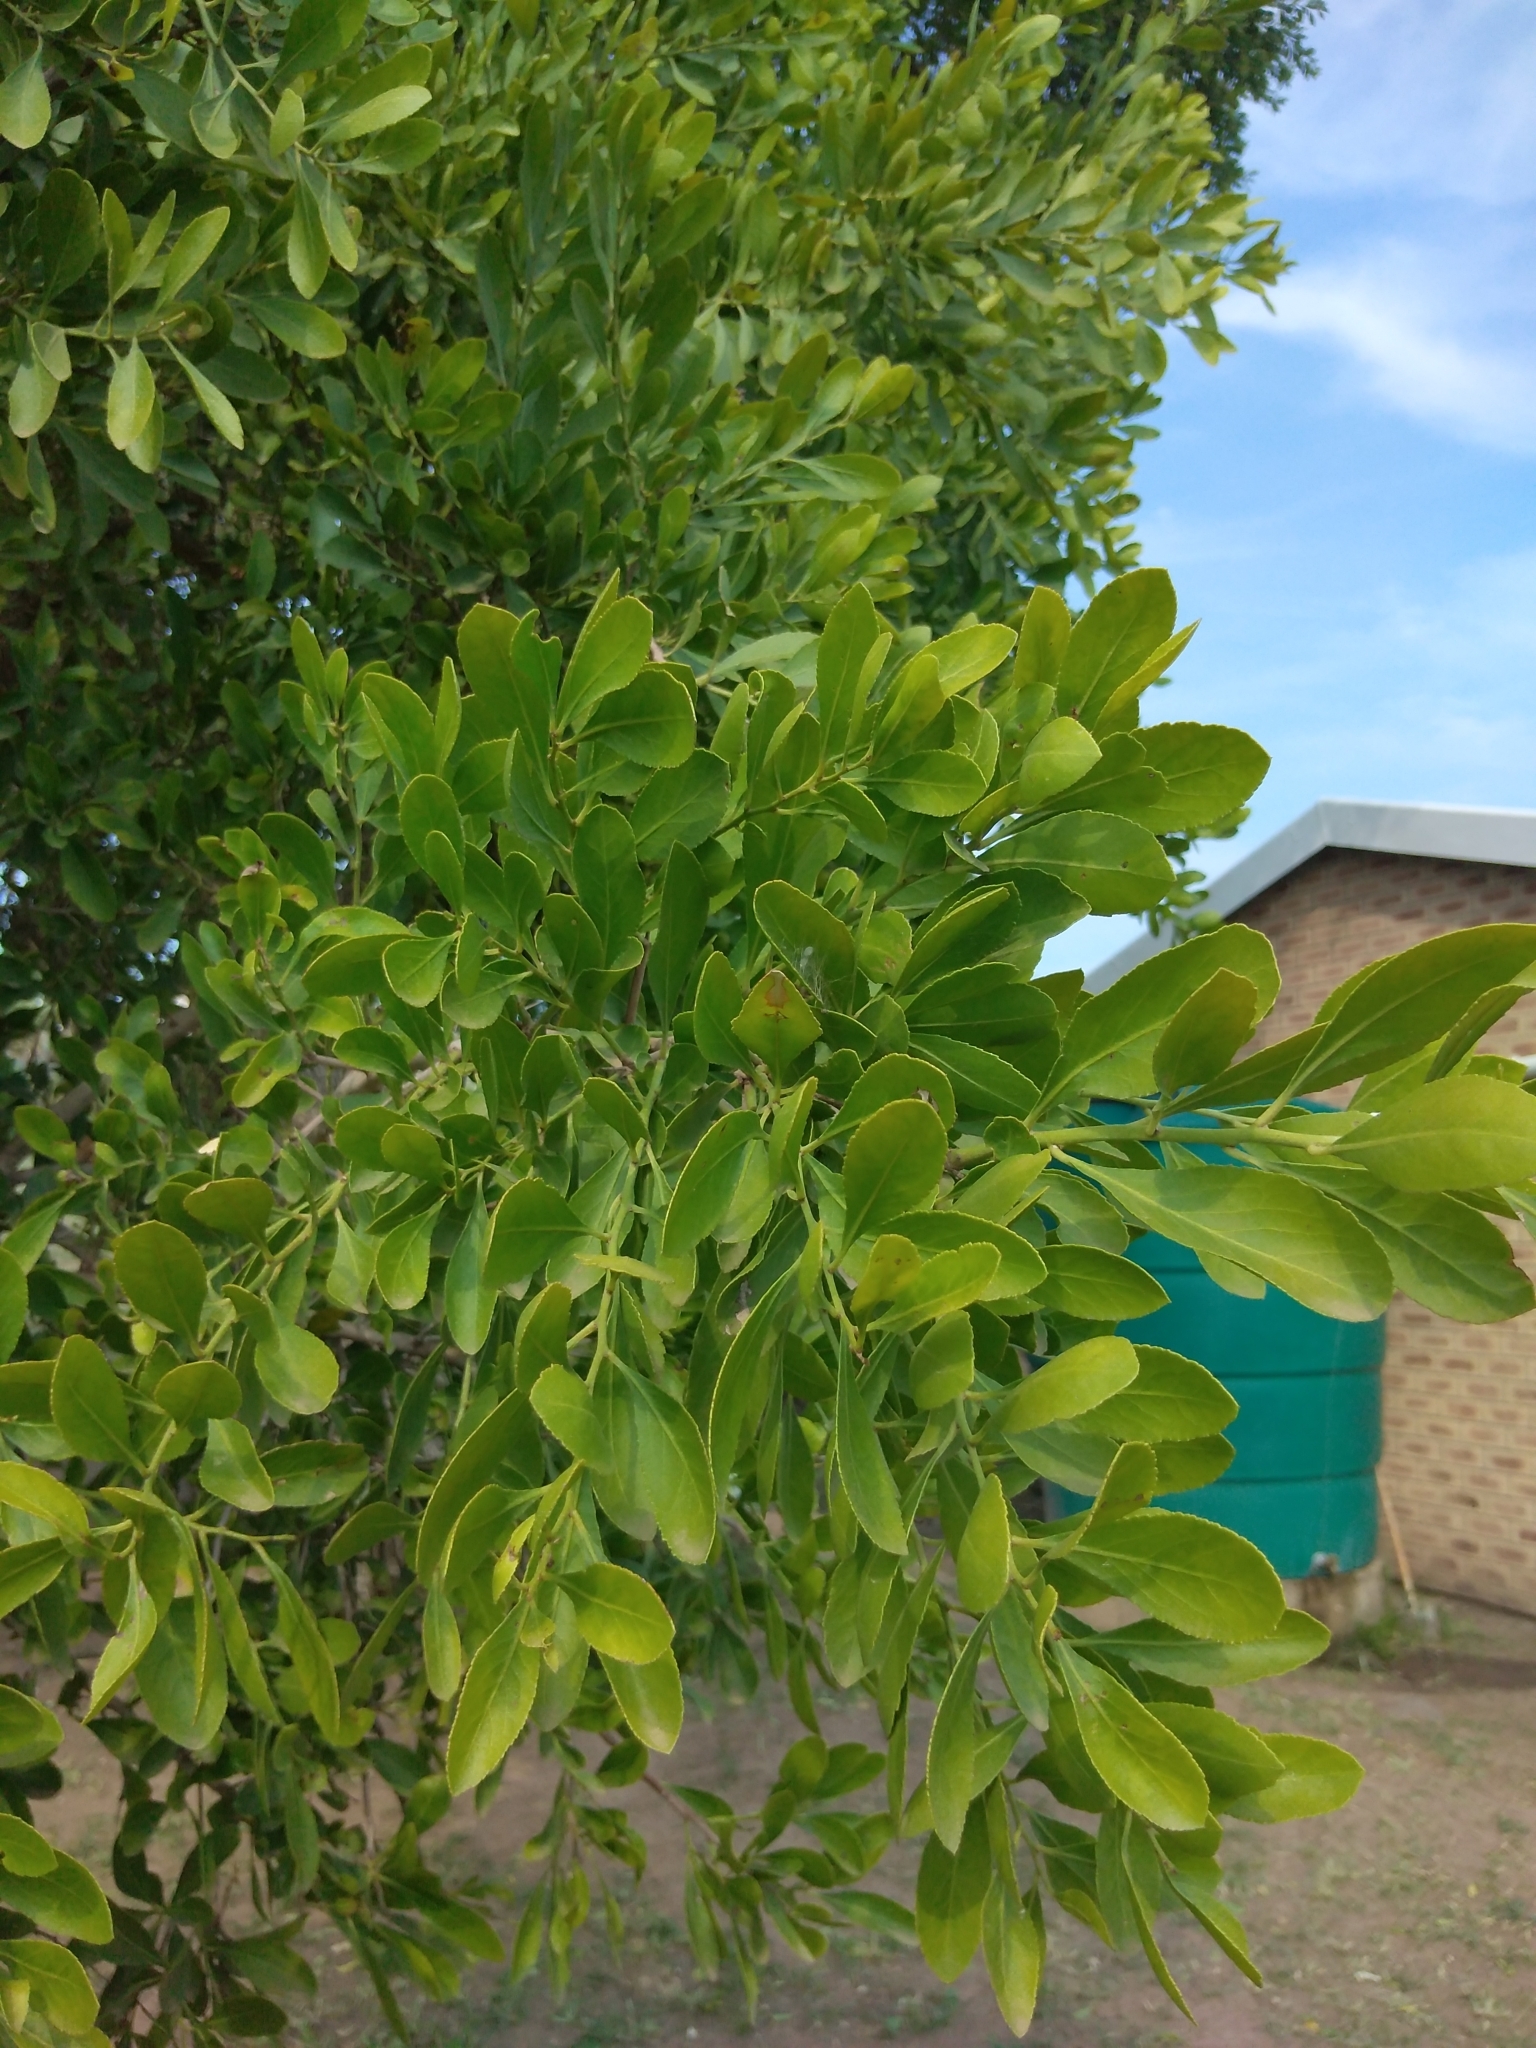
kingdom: Plantae
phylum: Tracheophyta
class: Magnoliopsida
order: Celastrales
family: Celastraceae
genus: Gymnosporia
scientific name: Gymnosporia senegalensis
